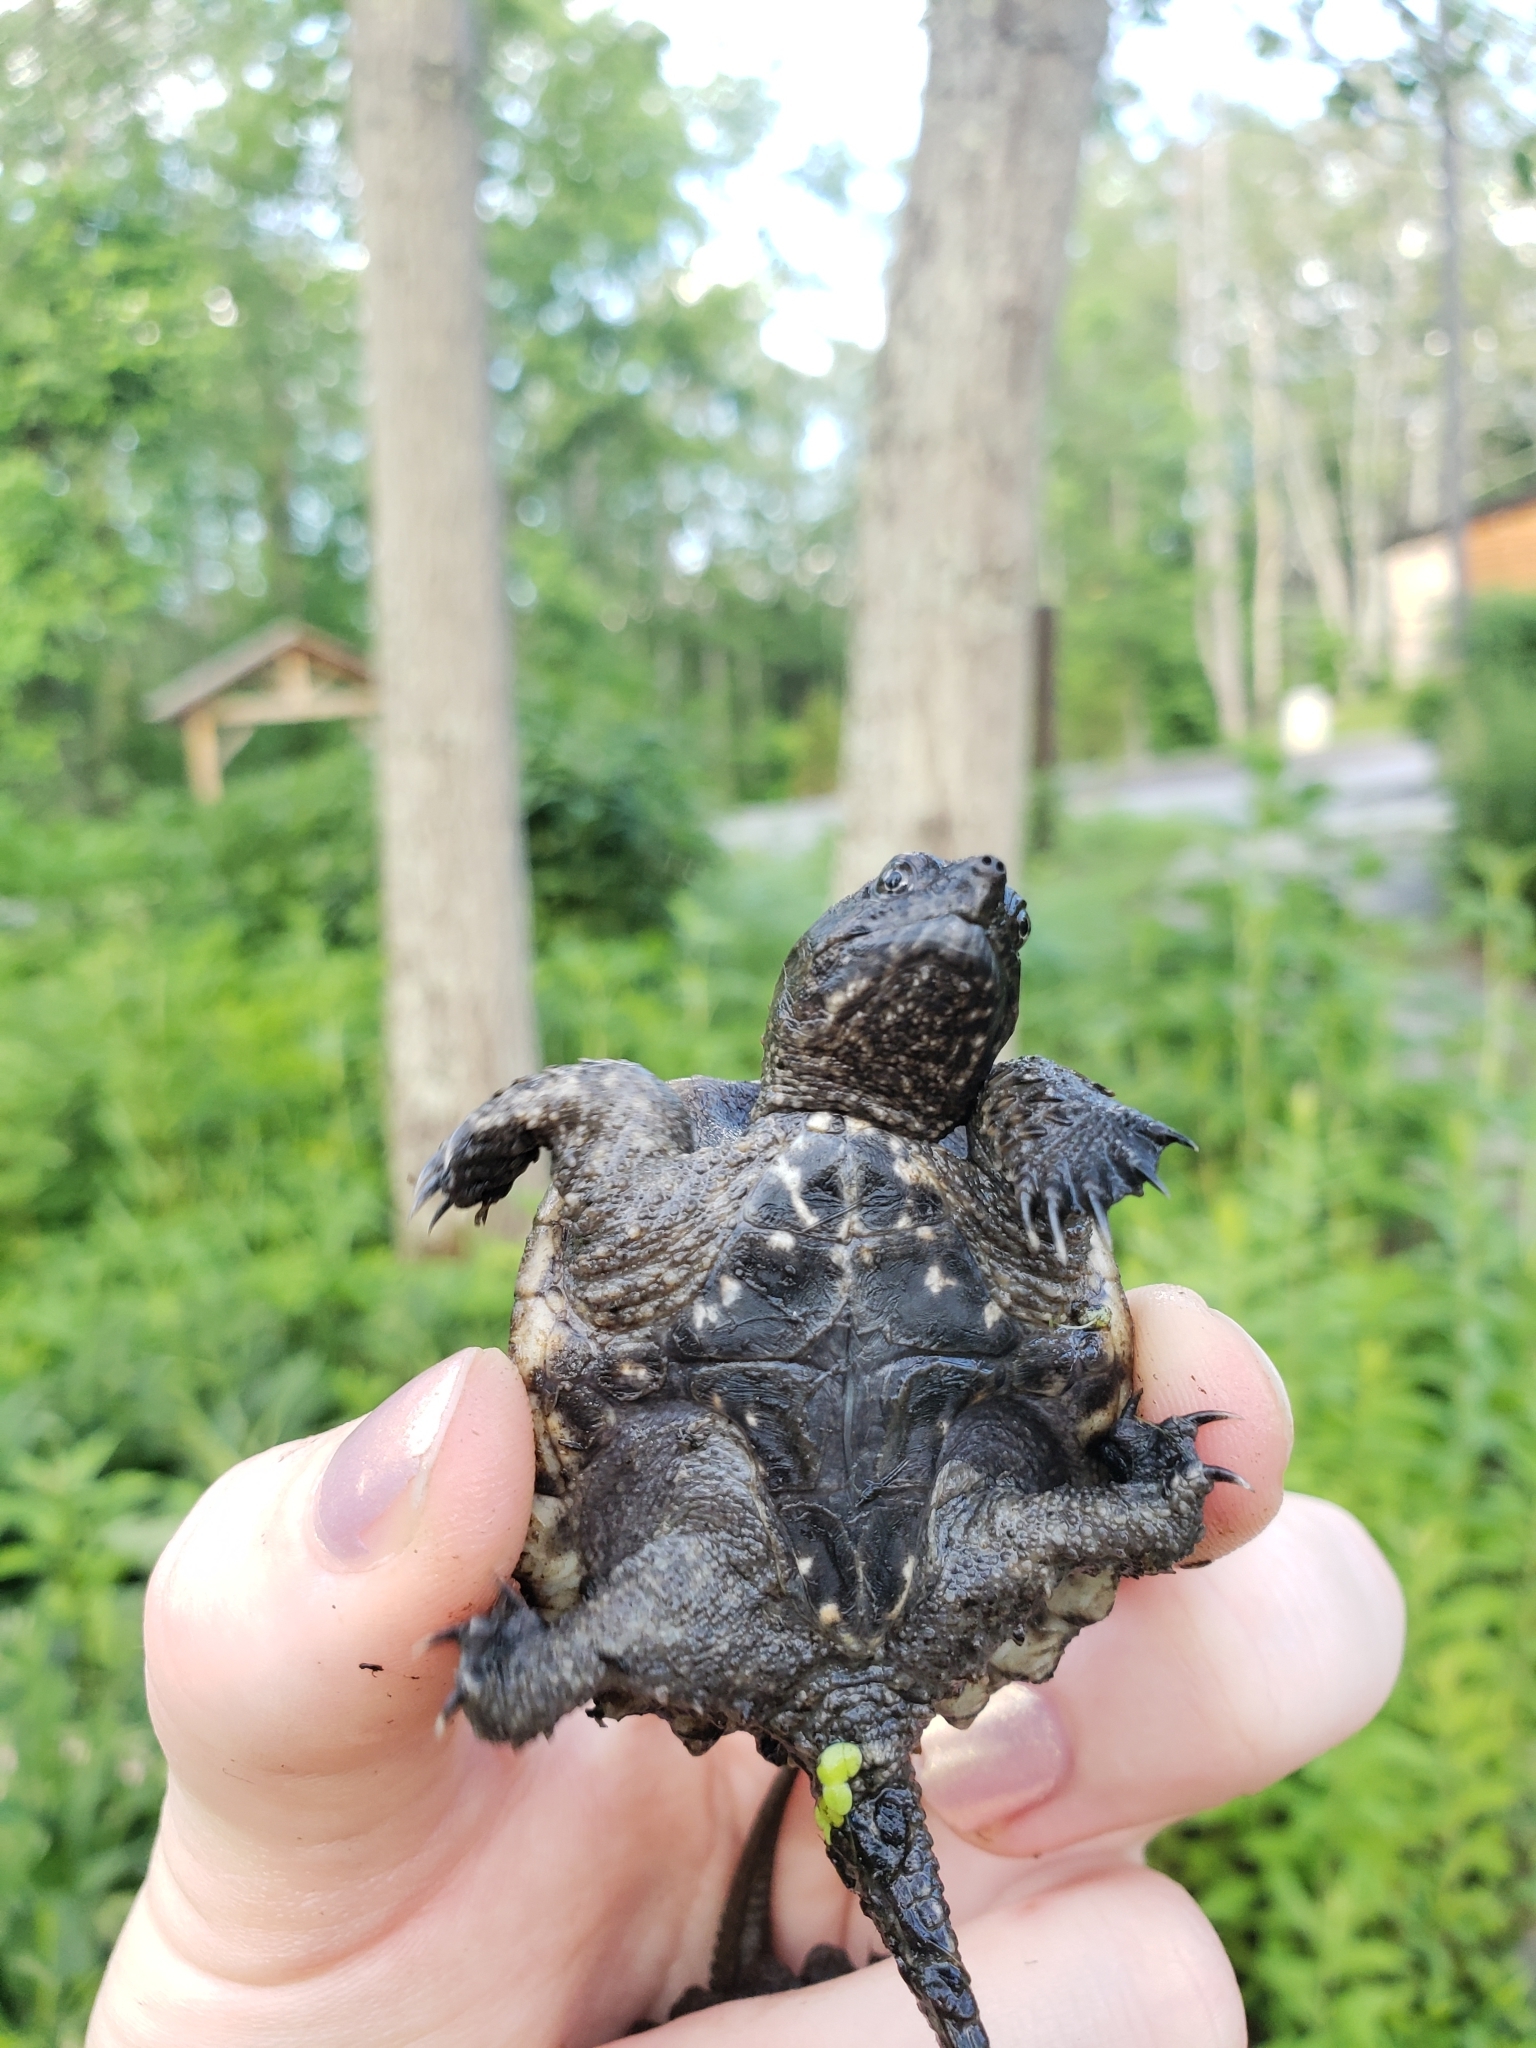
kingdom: Animalia
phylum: Chordata
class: Testudines
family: Chelydridae
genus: Chelydra
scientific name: Chelydra serpentina
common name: Common snapping turtle
